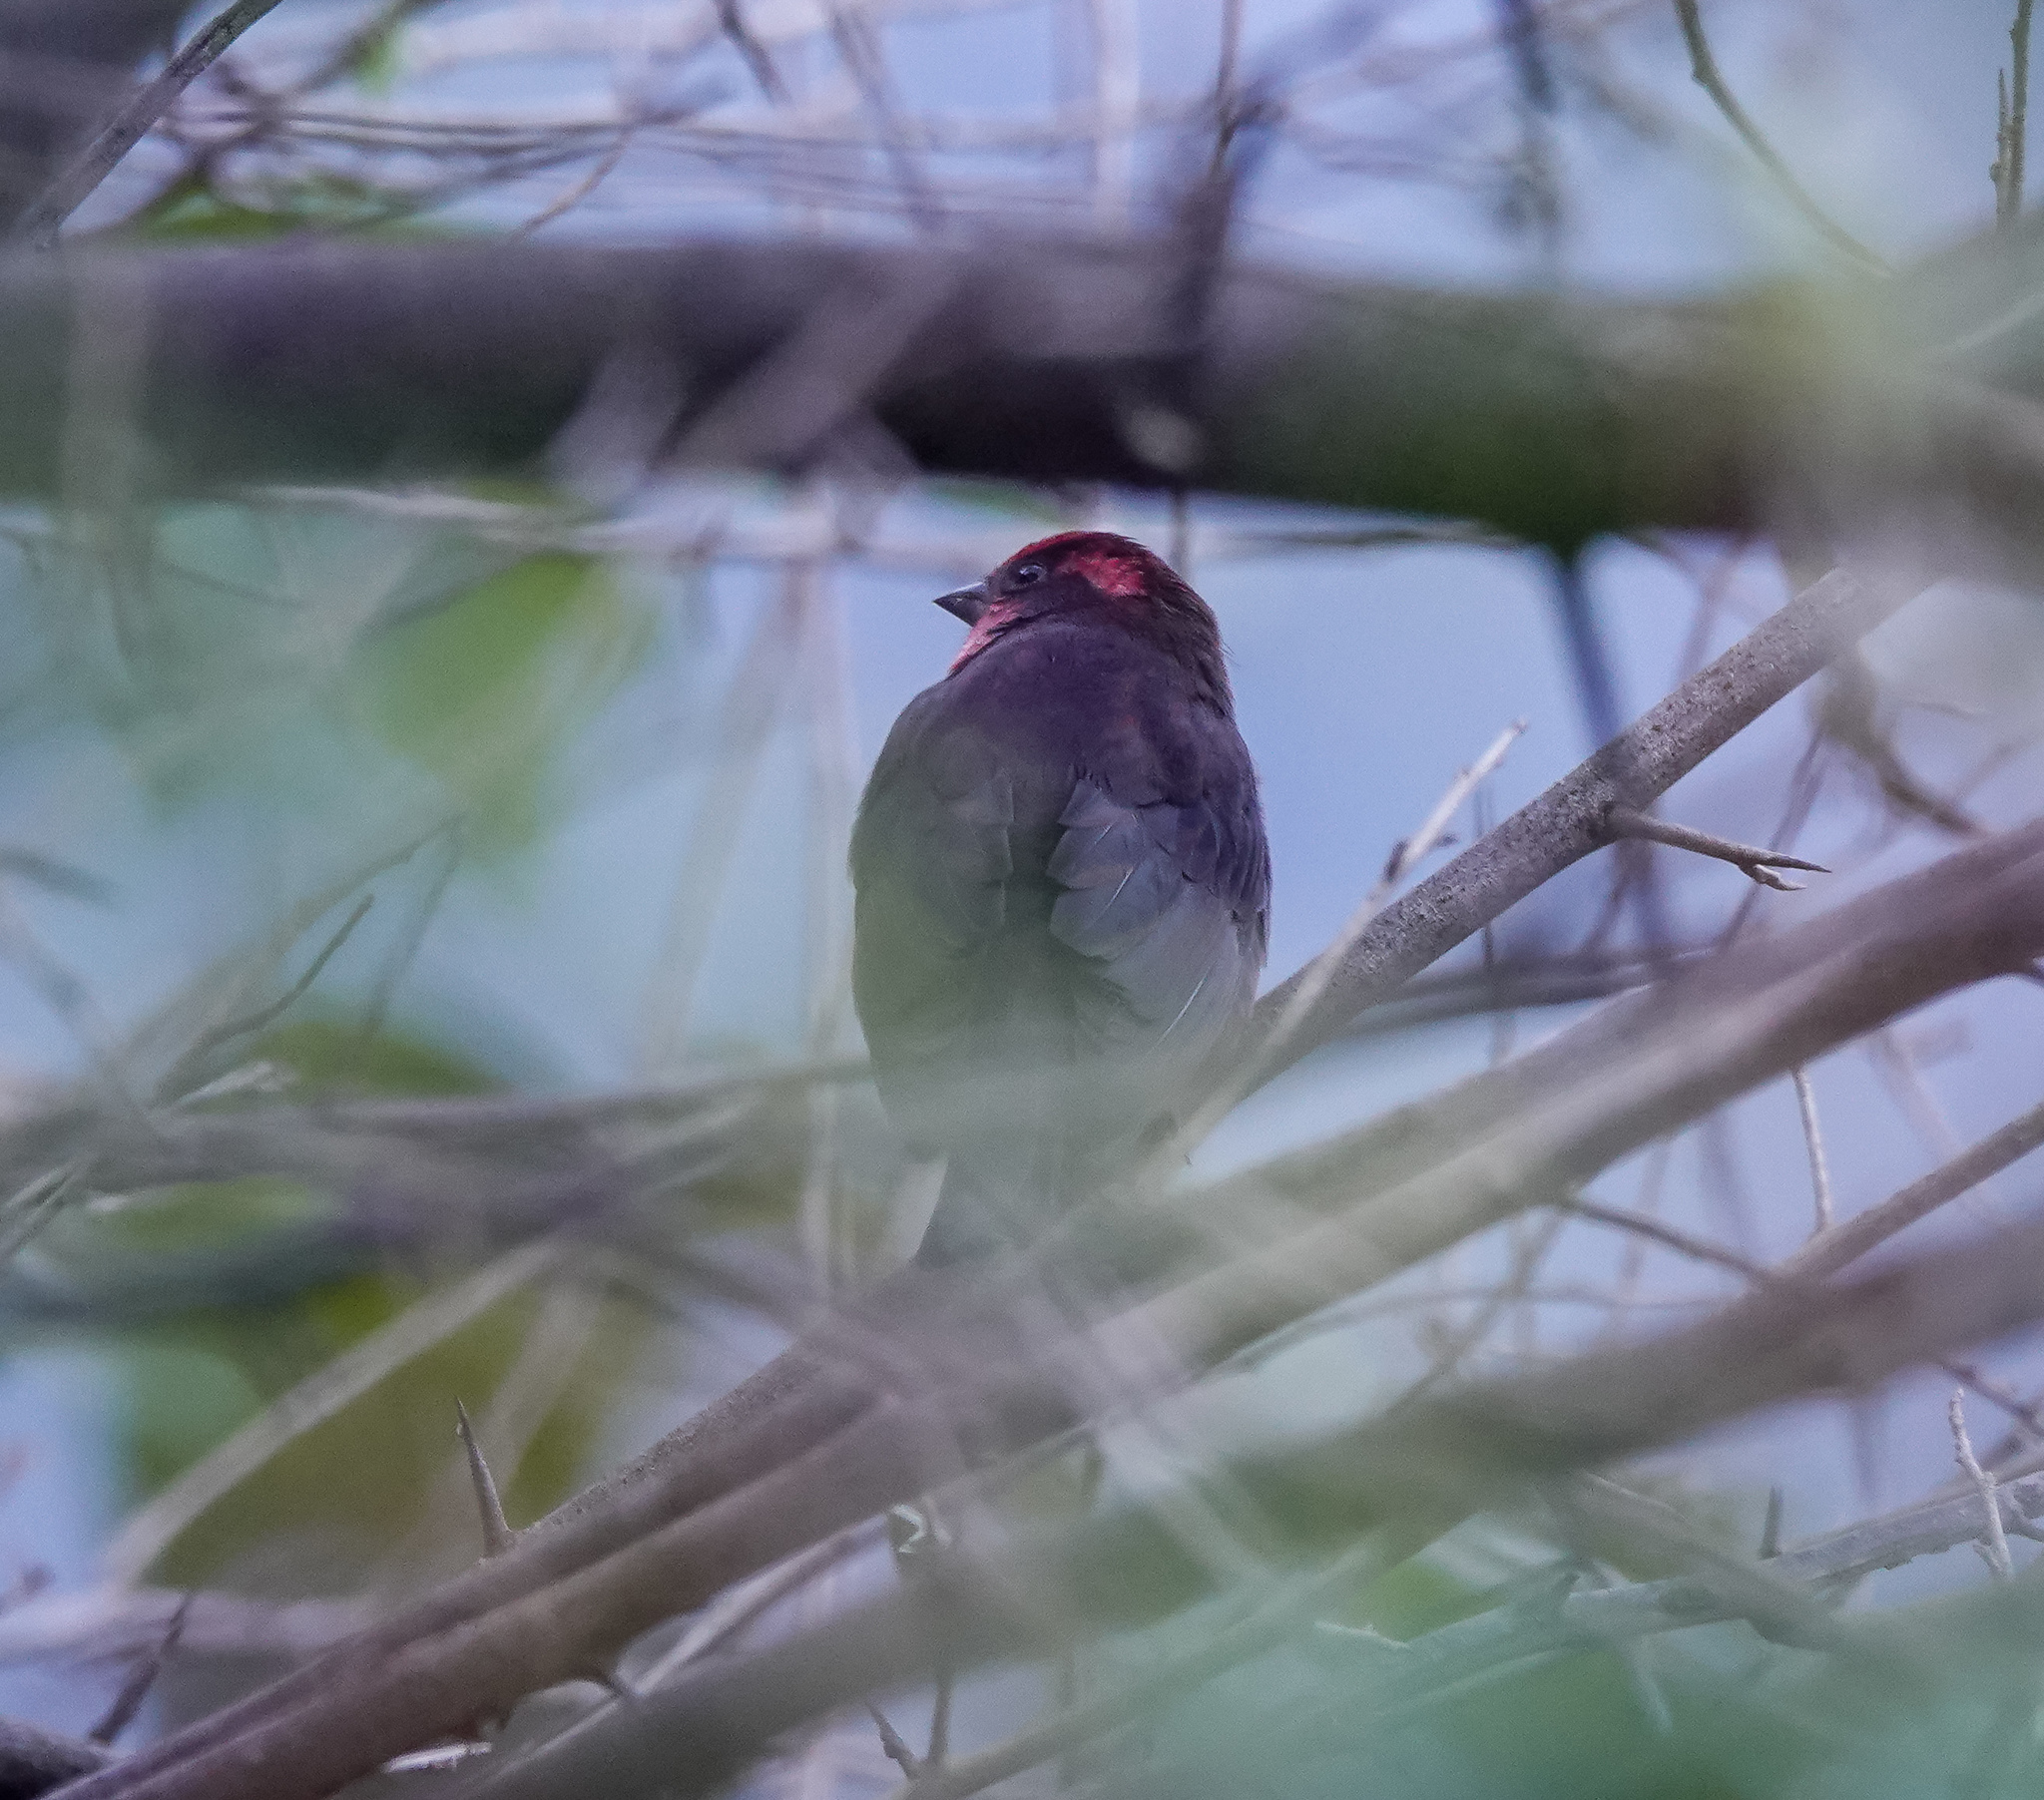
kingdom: Animalia
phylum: Chordata
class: Aves
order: Passeriformes
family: Fringillidae
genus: Procarduelis
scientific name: Procarduelis nipalensis
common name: Dark-breasted rosefinch
